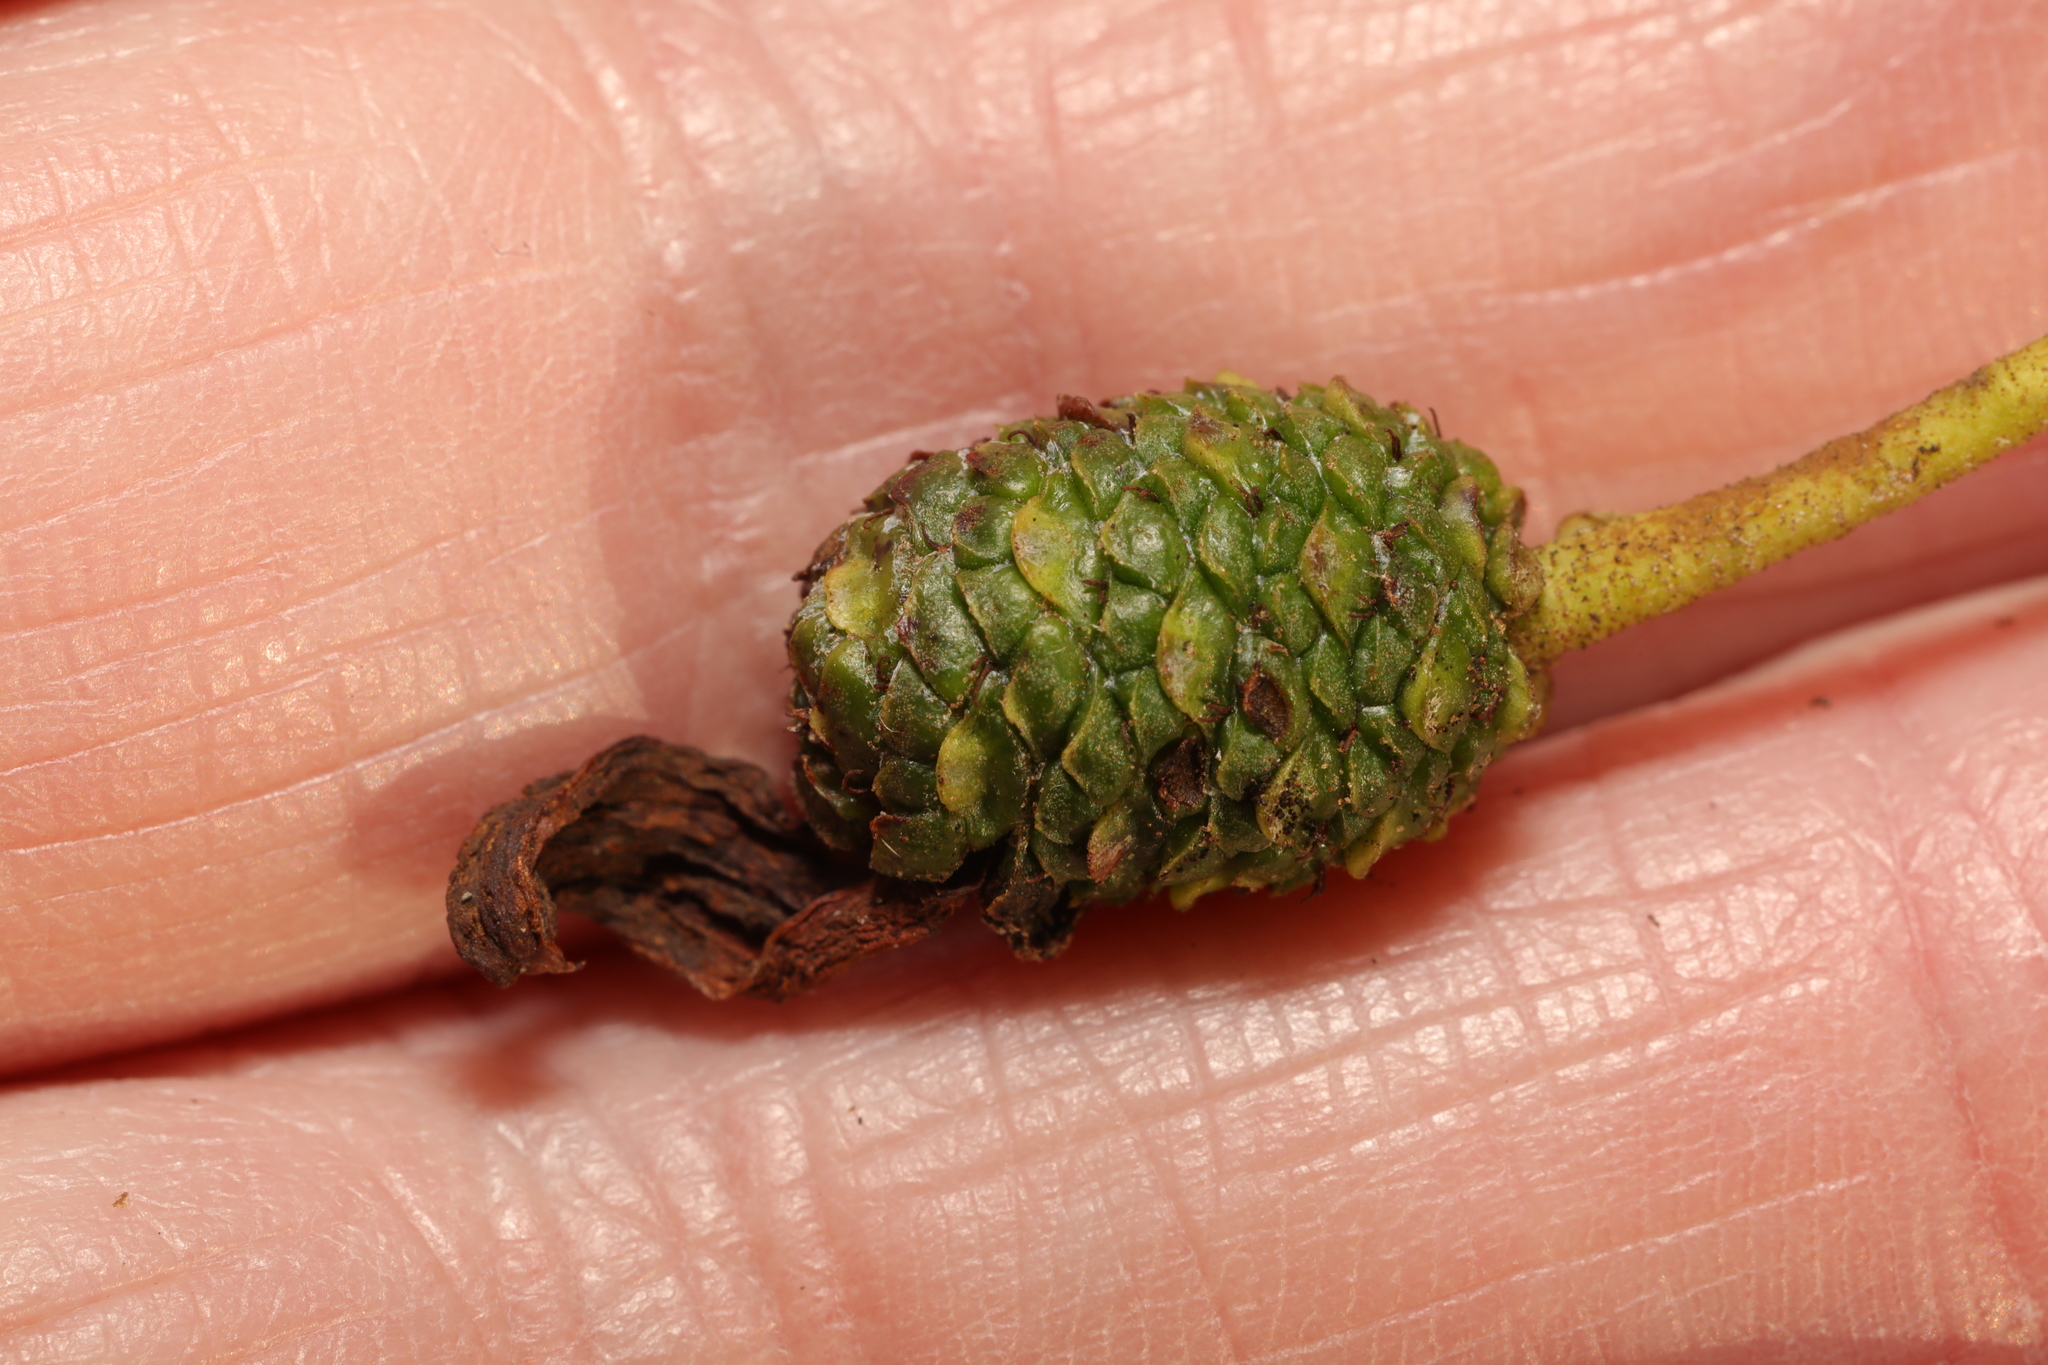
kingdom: Fungi
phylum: Ascomycota
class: Taphrinomycetes
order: Taphrinales
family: Taphrinaceae
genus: Taphrina
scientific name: Taphrina alni
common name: Alder tongue
